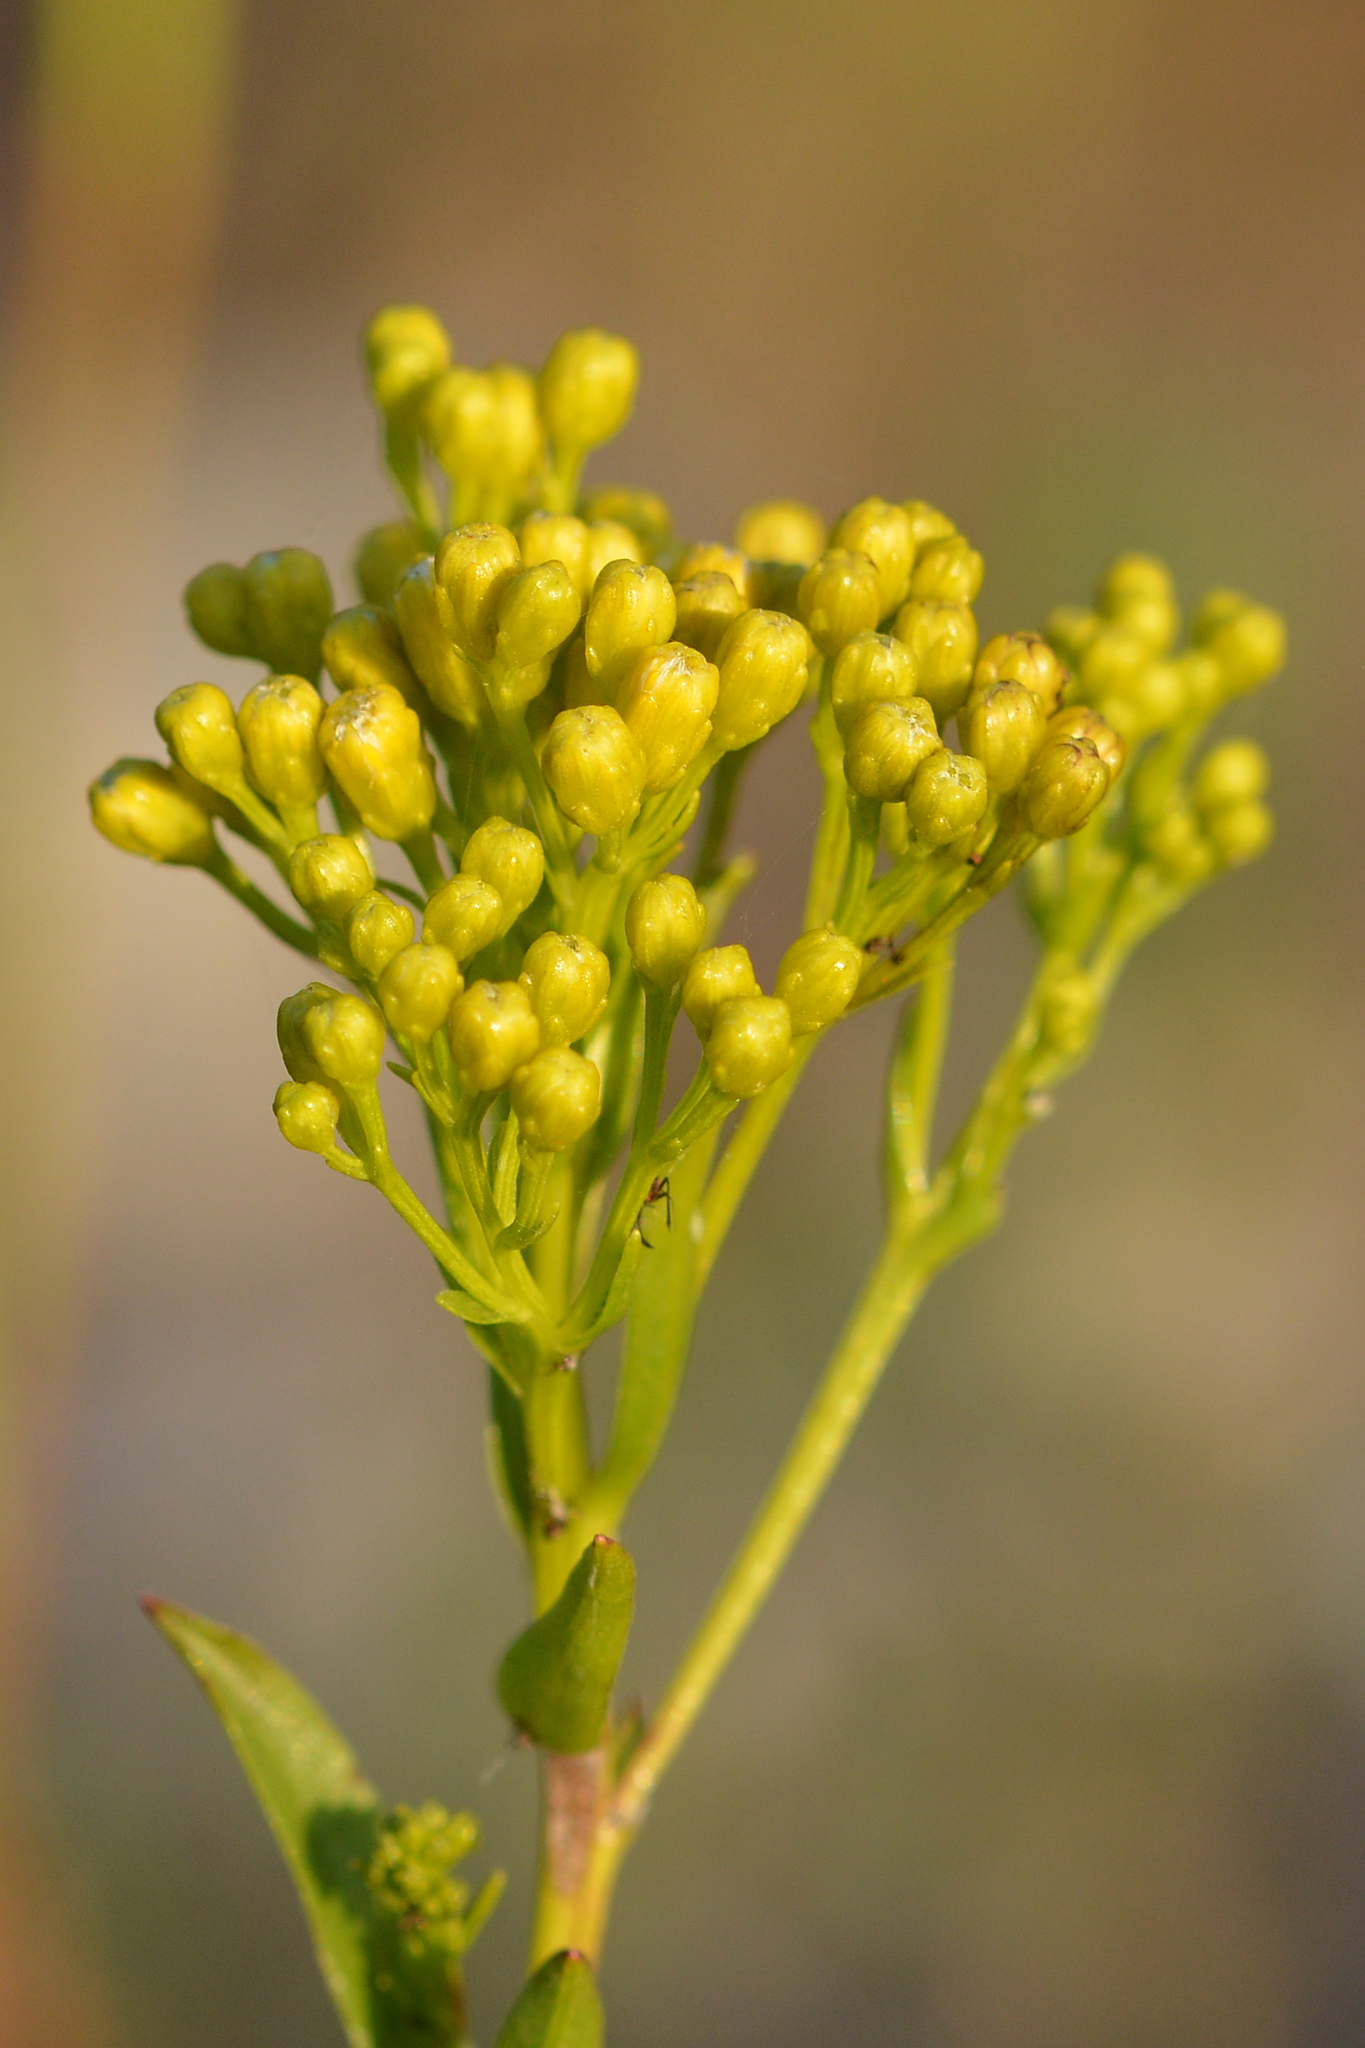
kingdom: Plantae
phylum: Tracheophyta
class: Magnoliopsida
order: Asterales
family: Asteraceae
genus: Solidago
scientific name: Solidago ohioensis
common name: Ohio goldenrod
